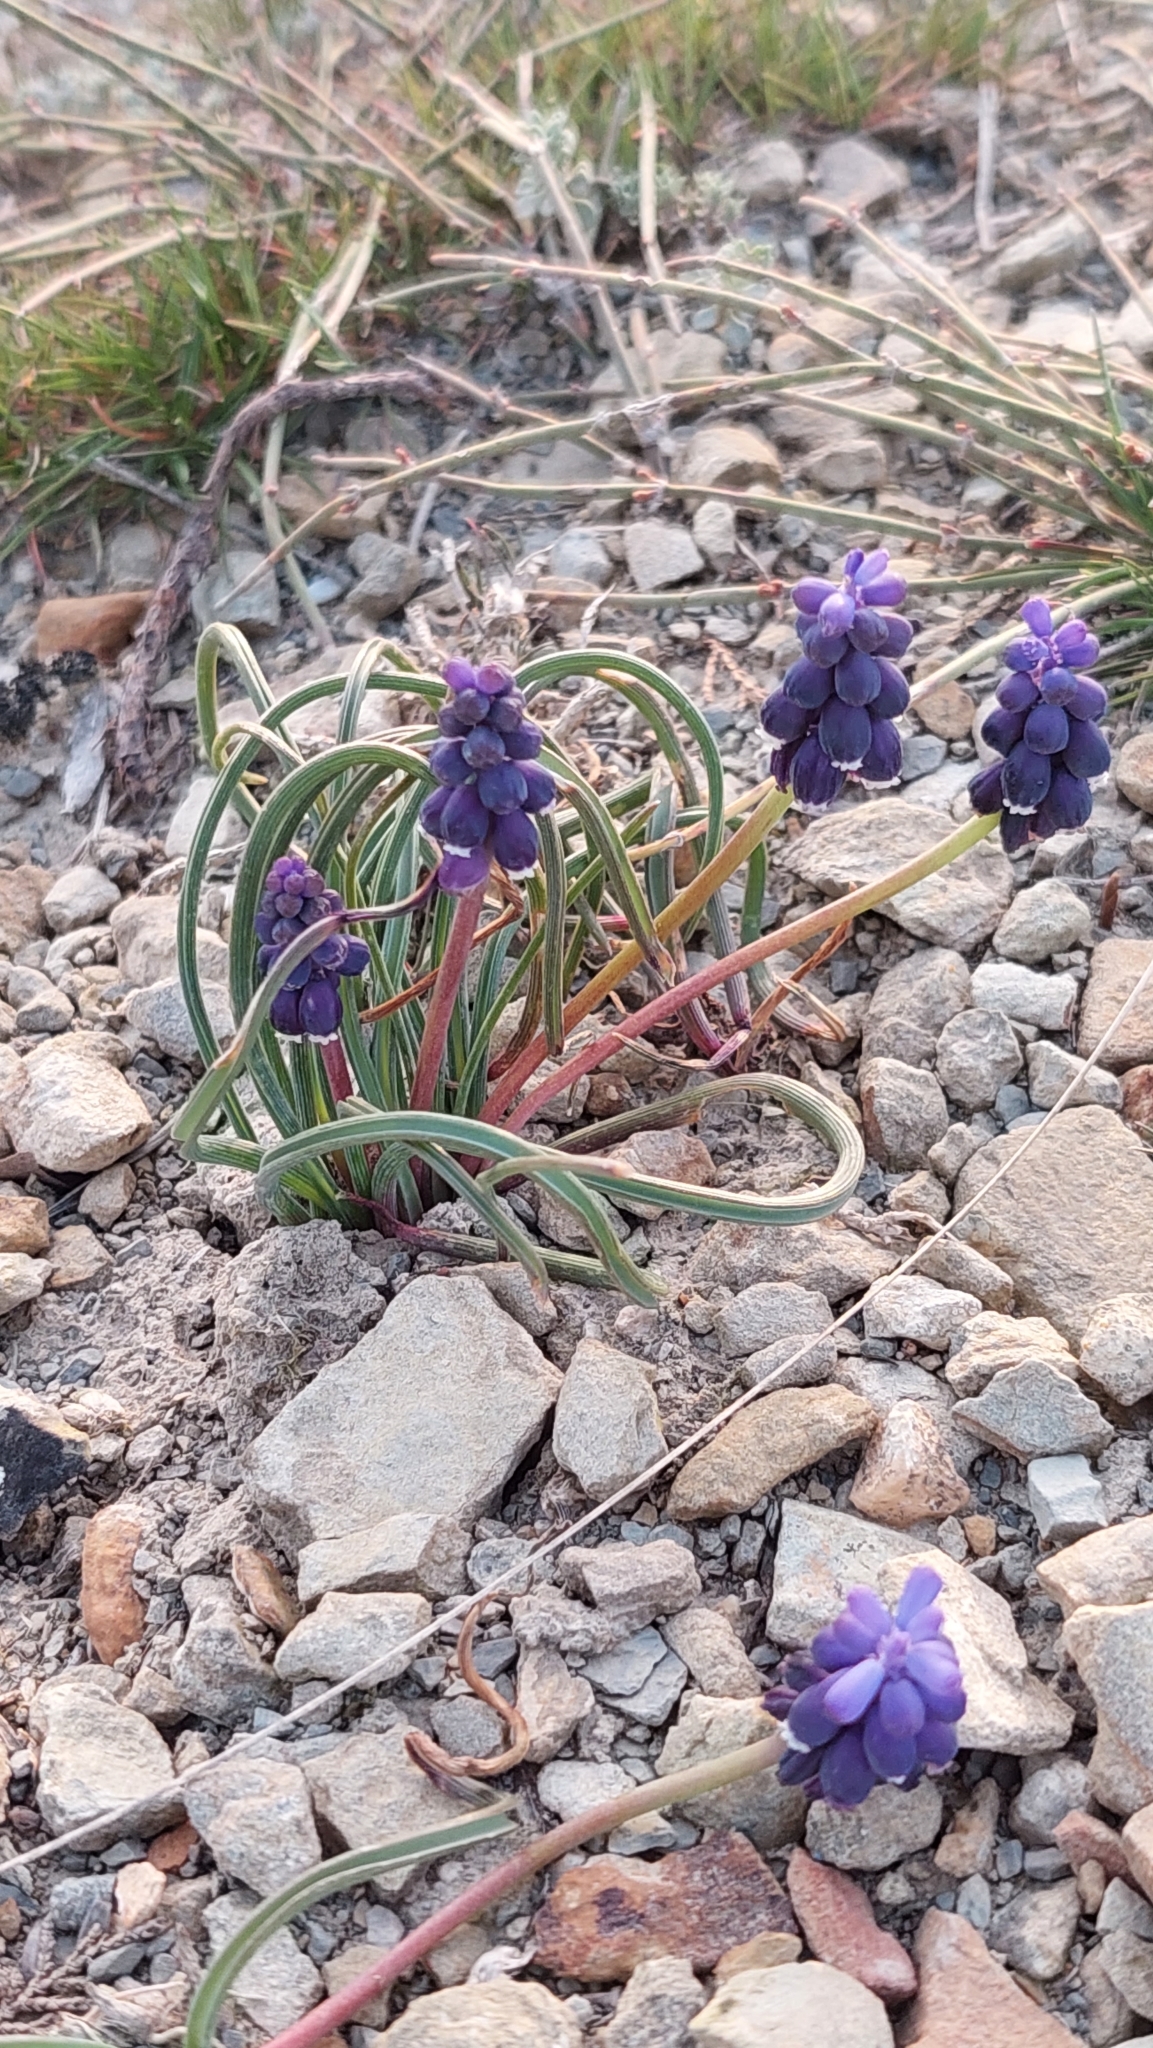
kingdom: Plantae
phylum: Tracheophyta
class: Liliopsida
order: Asparagales
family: Asparagaceae
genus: Muscari
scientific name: Muscari neglectum
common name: Grape-hyacinth
